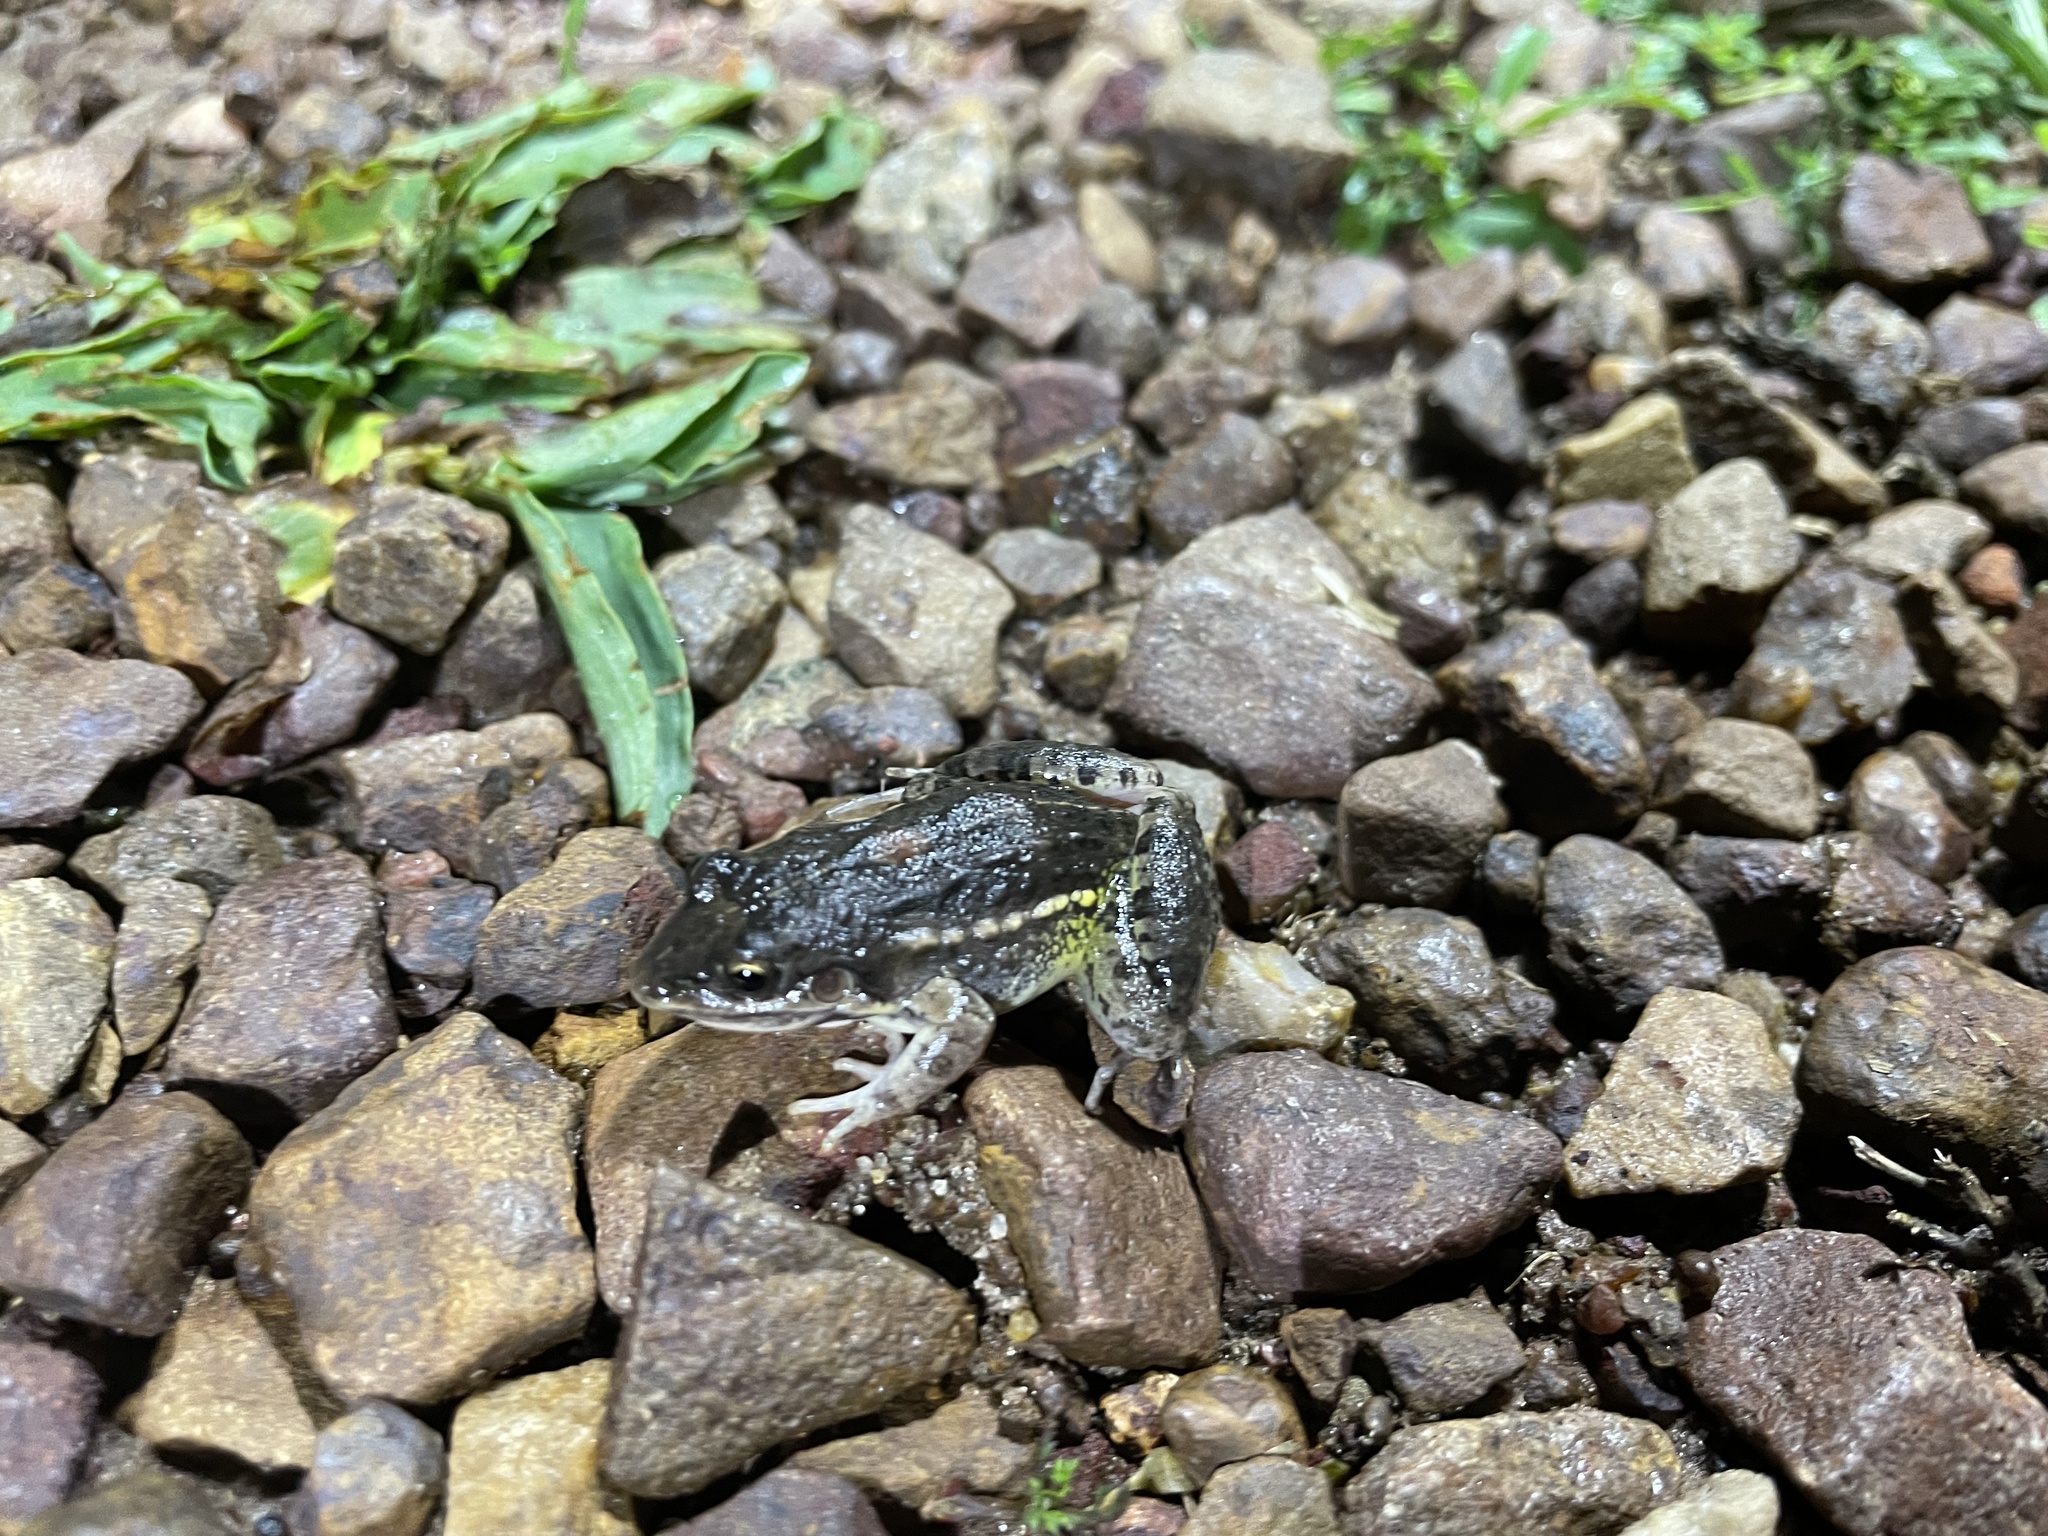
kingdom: Animalia
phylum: Chordata
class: Amphibia
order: Anura
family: Leptodactylidae
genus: Leptodactylus
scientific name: Leptodactylus latinasus
